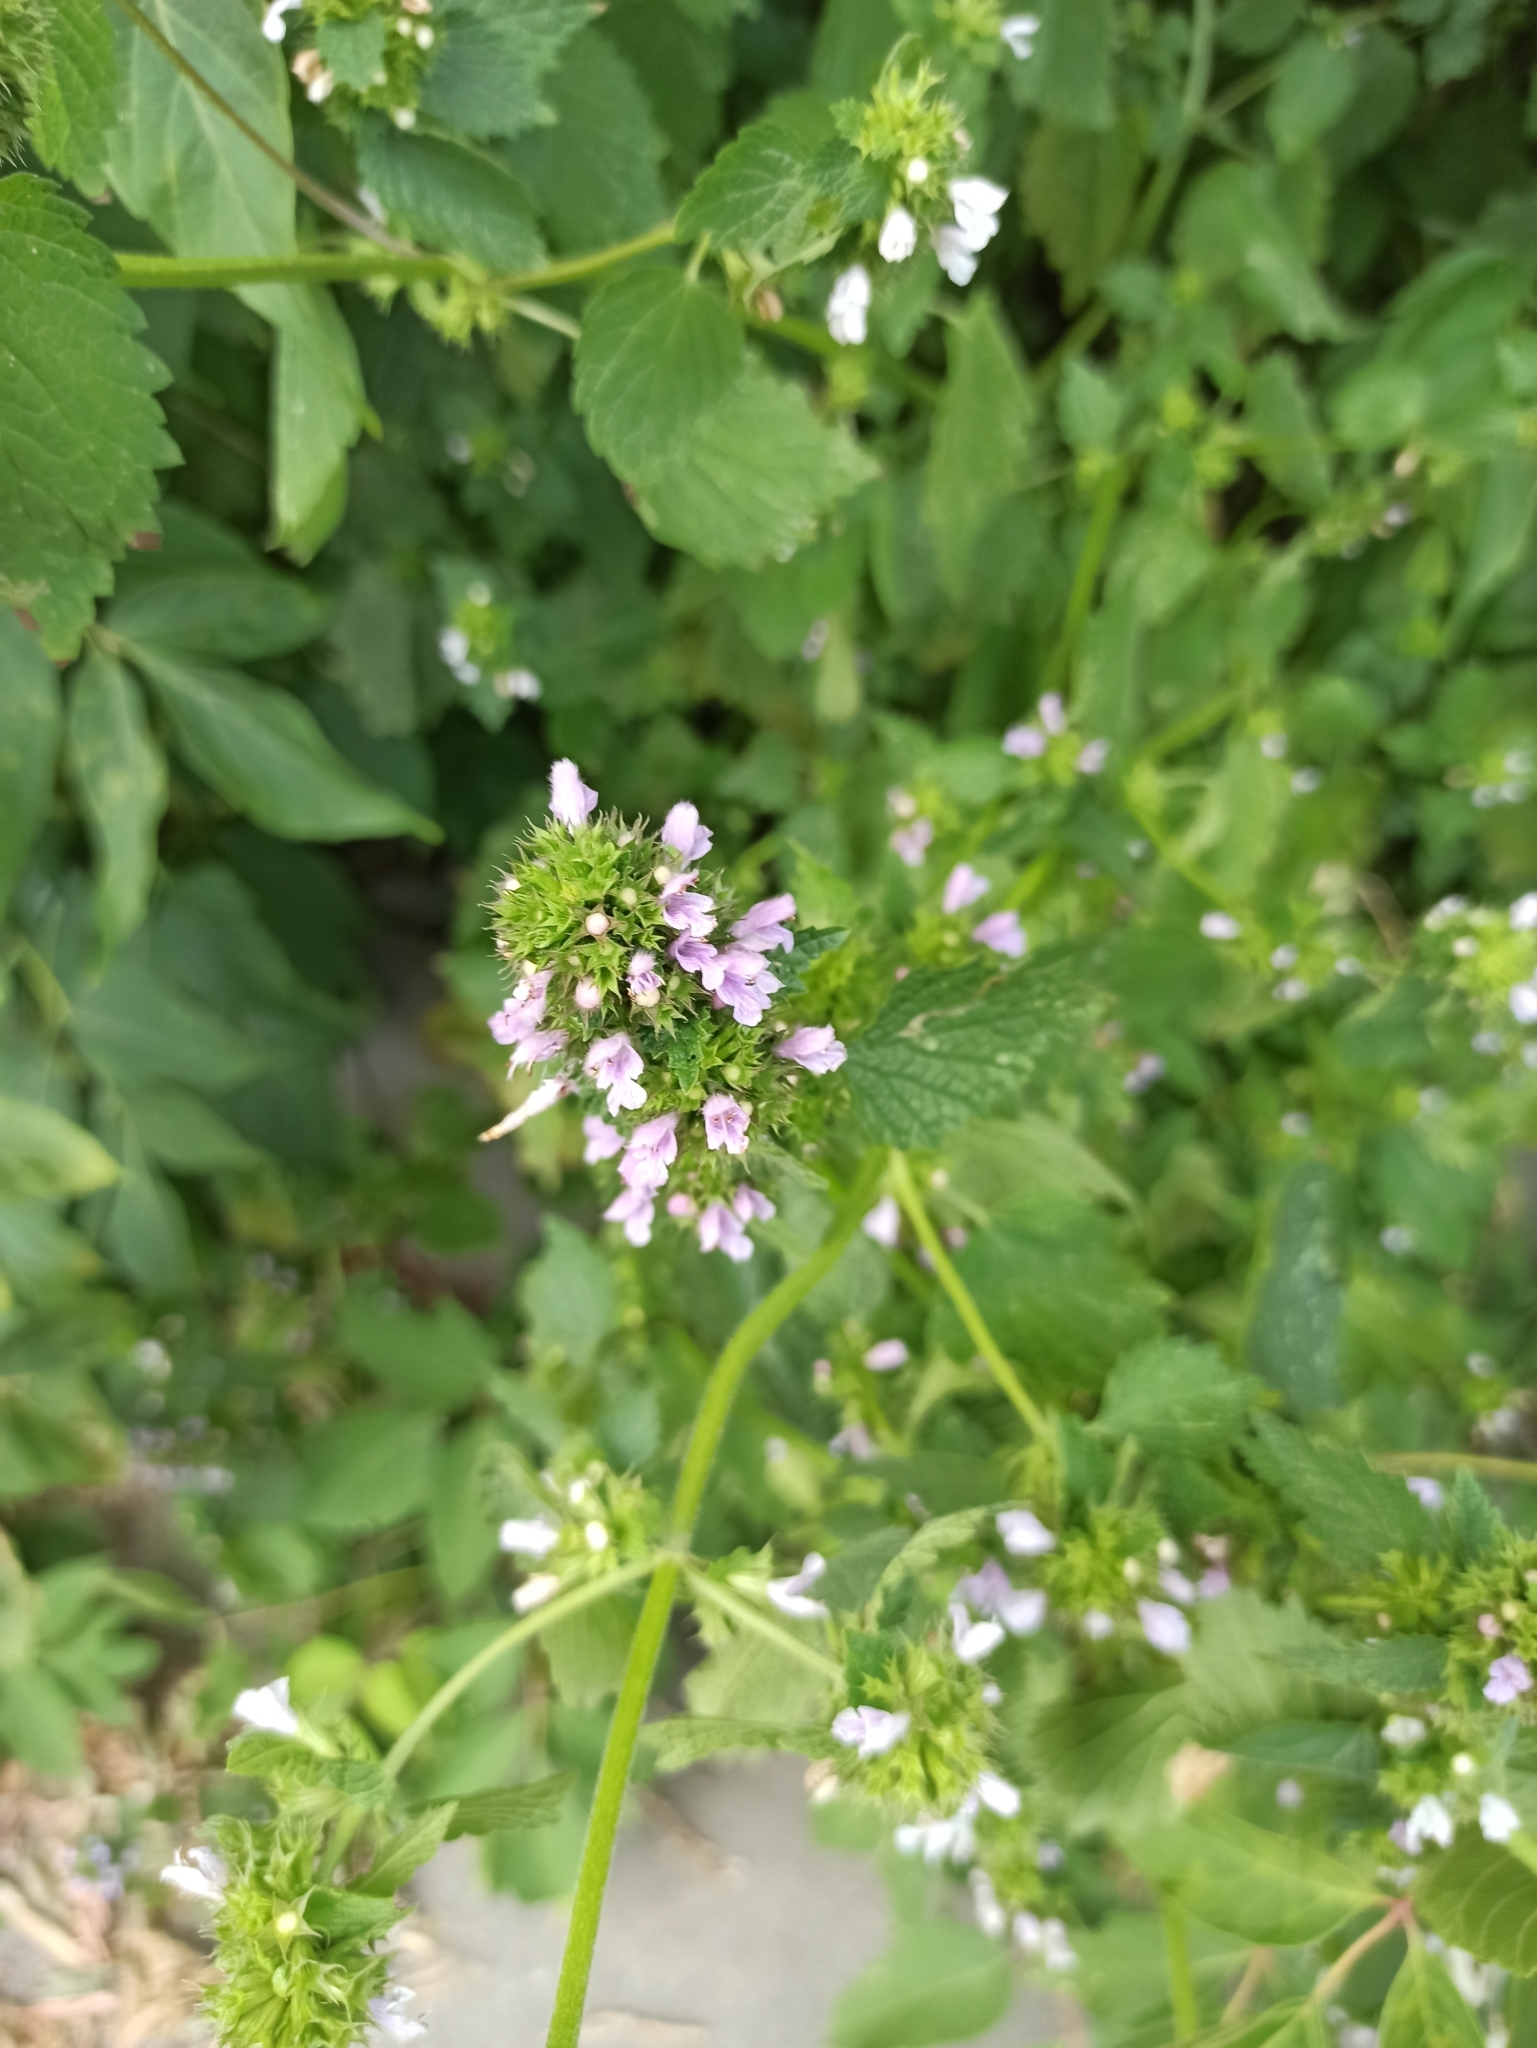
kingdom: Plantae
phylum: Tracheophyta
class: Magnoliopsida
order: Lamiales
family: Lamiaceae
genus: Ballota
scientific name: Ballota nigra
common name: Black horehound
